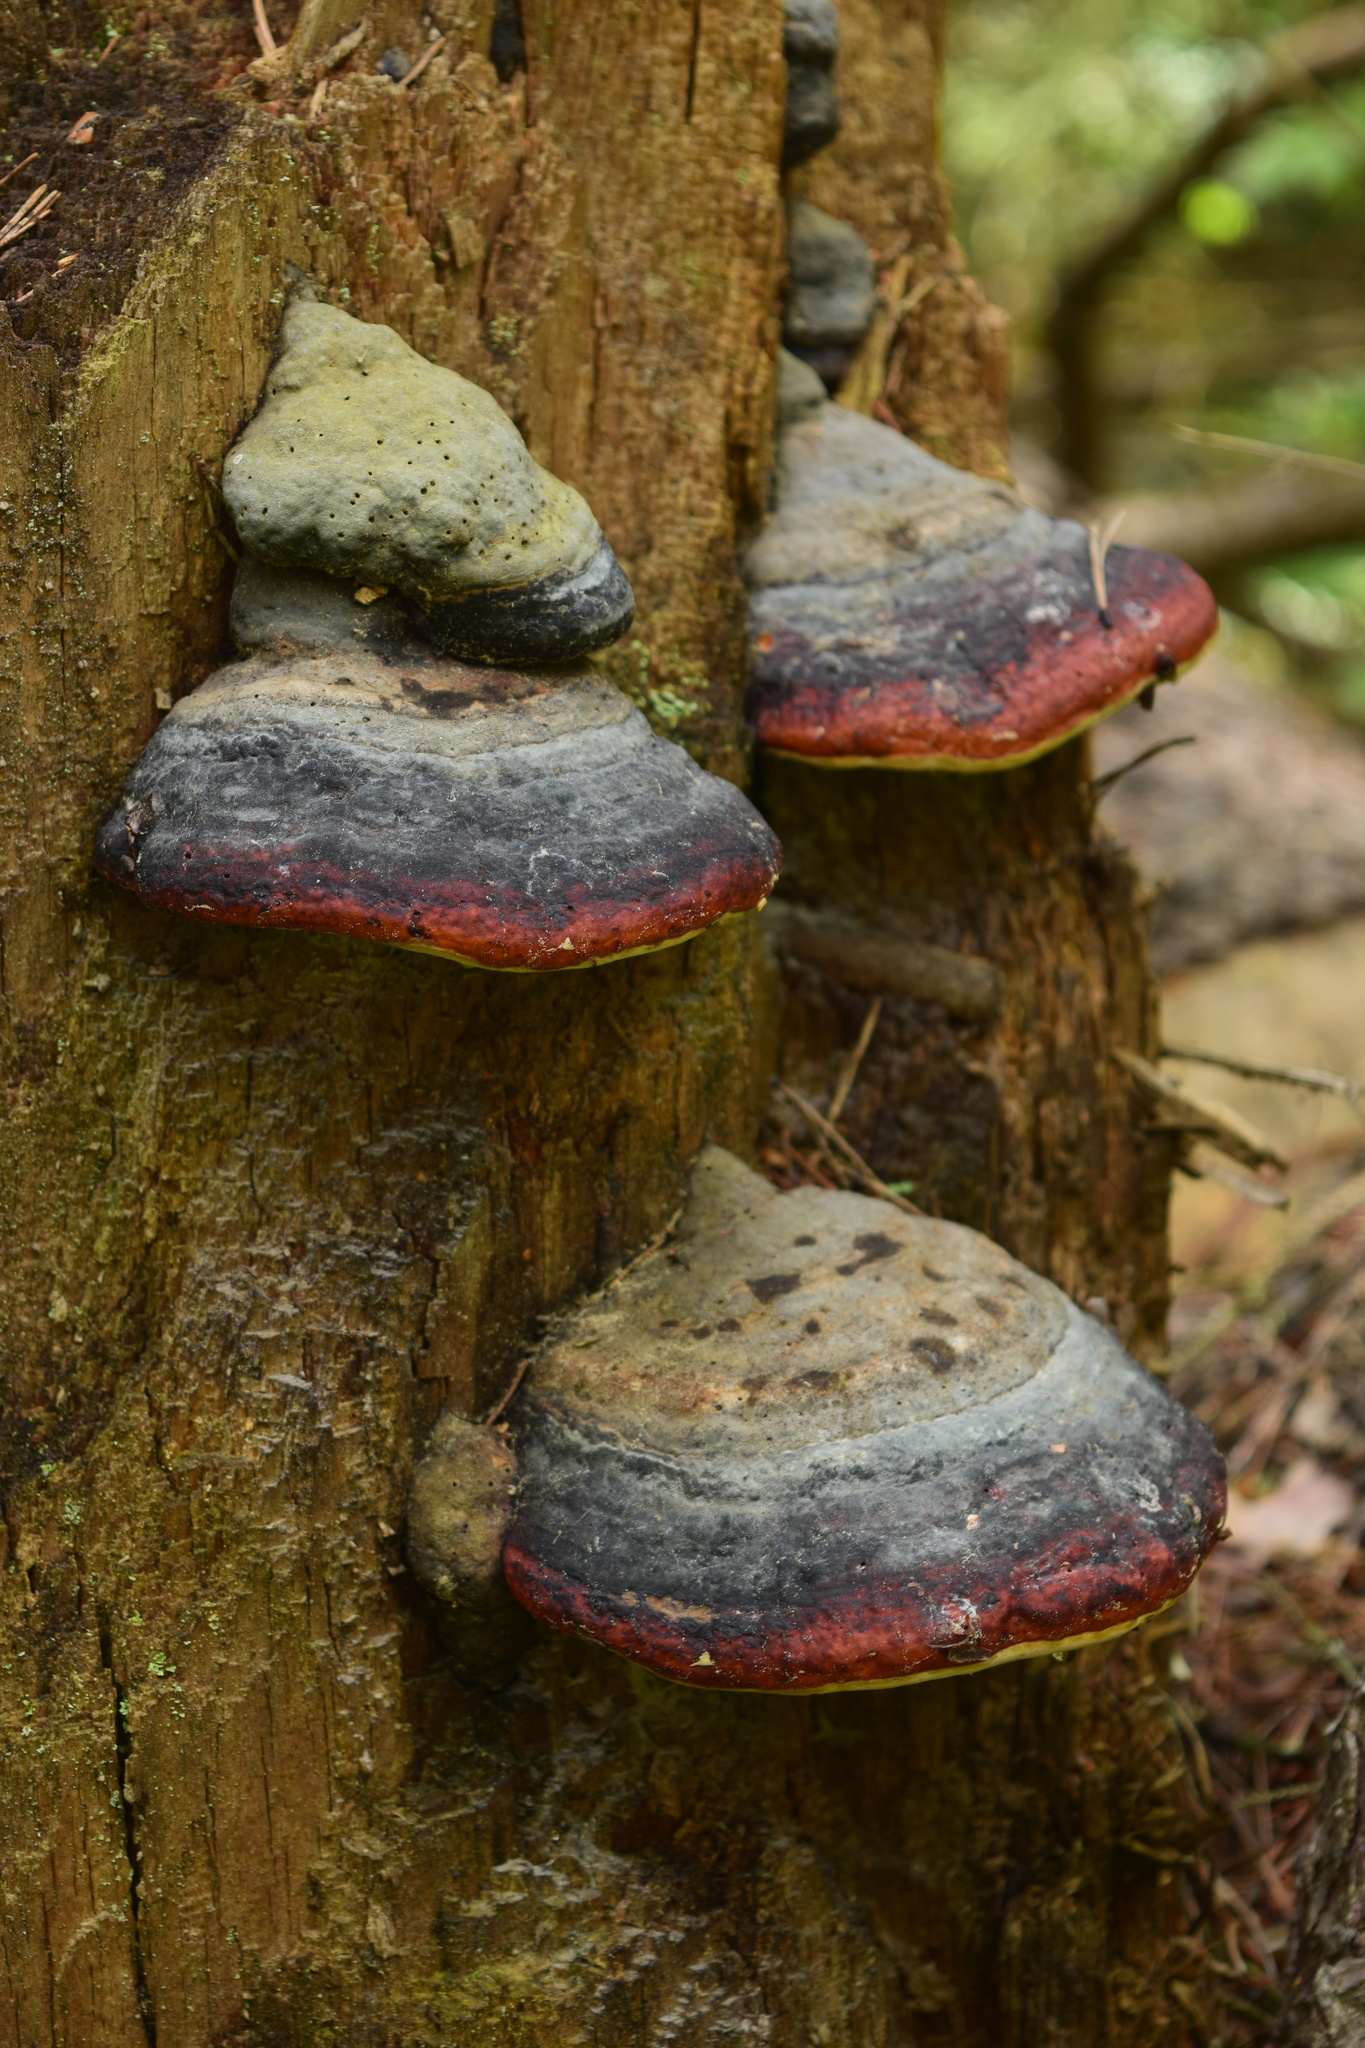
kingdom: Fungi
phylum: Basidiomycota
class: Agaricomycetes
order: Polyporales
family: Fomitopsidaceae
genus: Fomitopsis
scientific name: Fomitopsis pinicola
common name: Red-belted bracket
